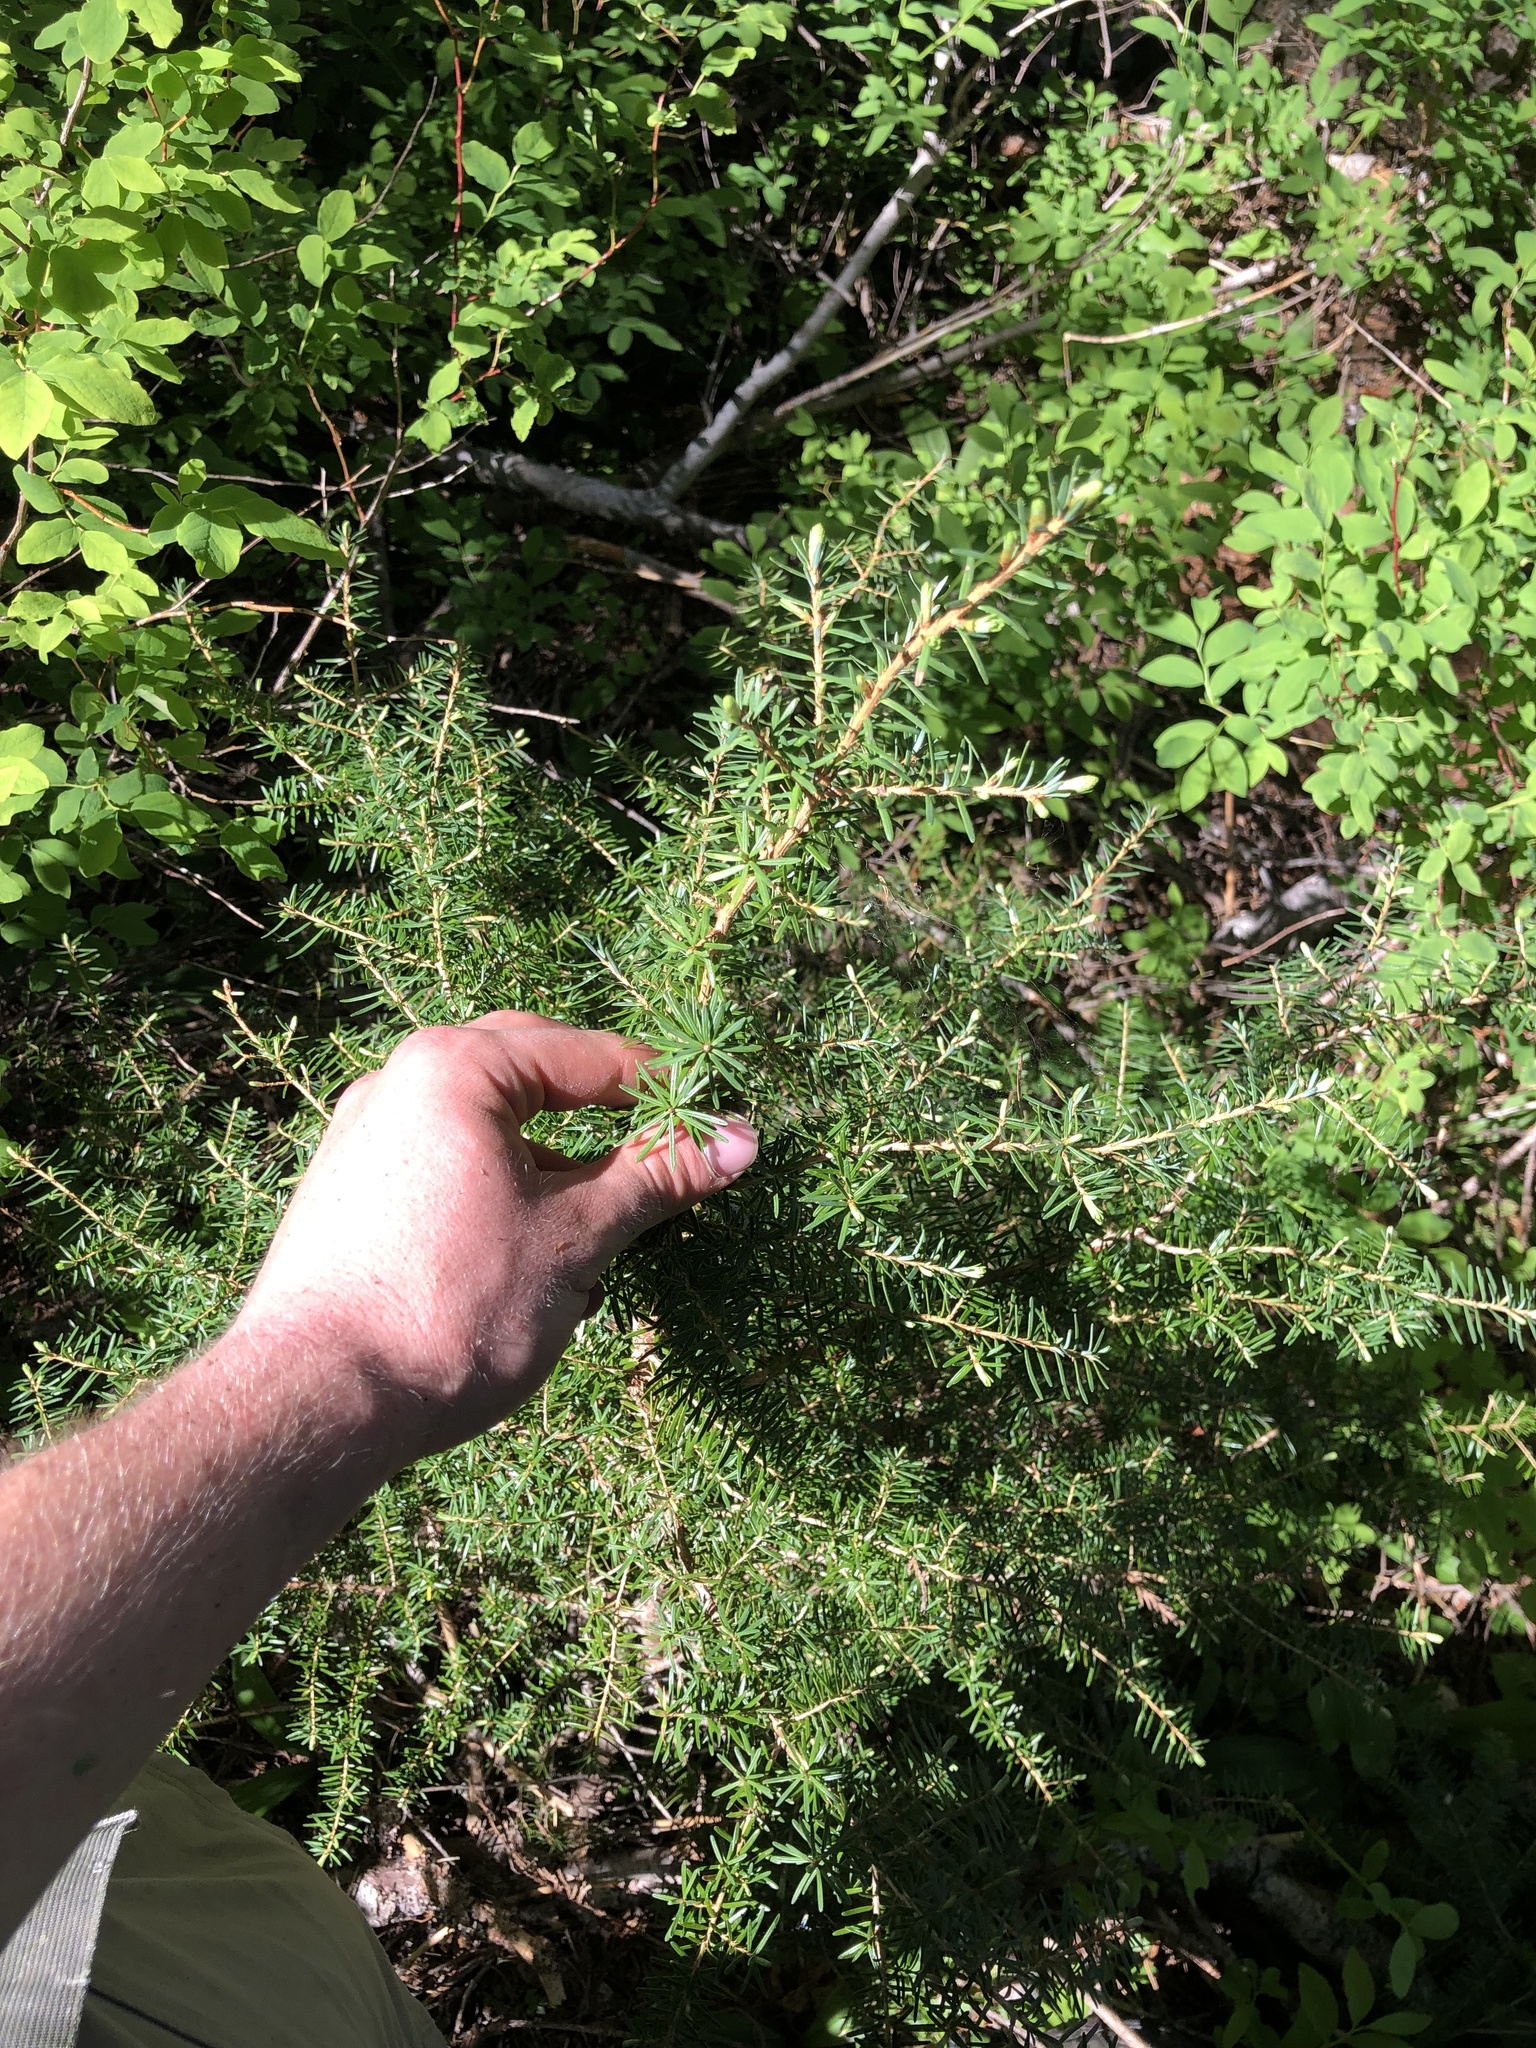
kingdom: Plantae
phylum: Tracheophyta
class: Pinopsida
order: Pinales
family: Pinaceae
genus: Tsuga
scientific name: Tsuga heterophylla
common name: Western hemlock
